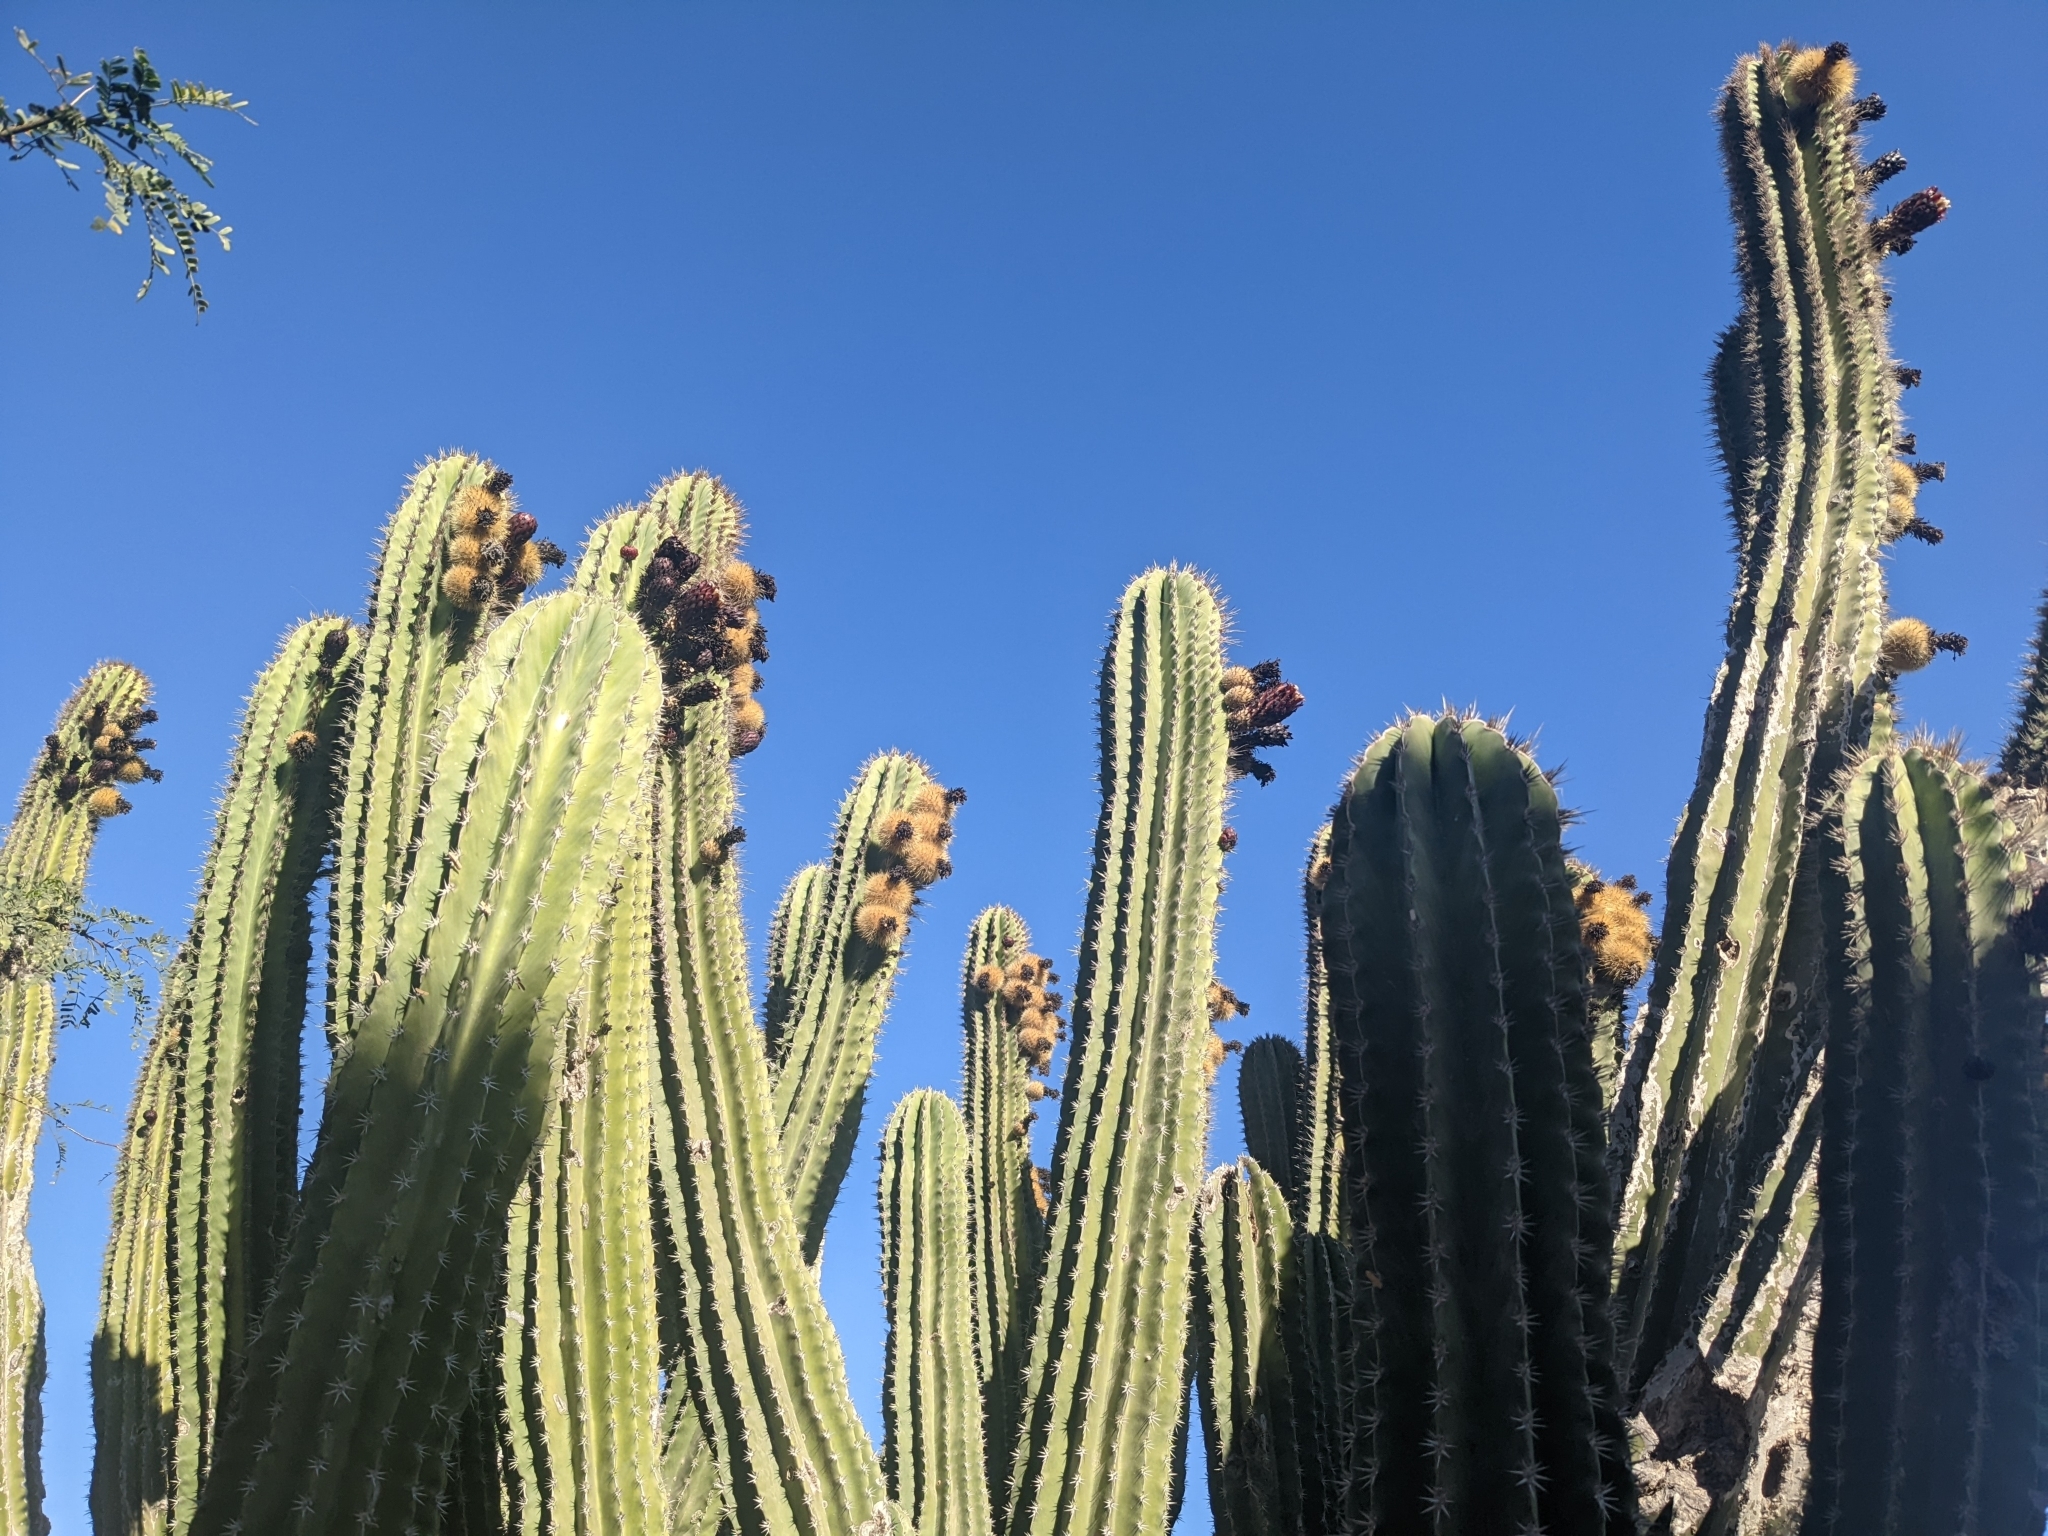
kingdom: Plantae
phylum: Tracheophyta
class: Magnoliopsida
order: Caryophyllales
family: Cactaceae
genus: Pachycereus
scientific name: Pachycereus pecten-aboriginum
